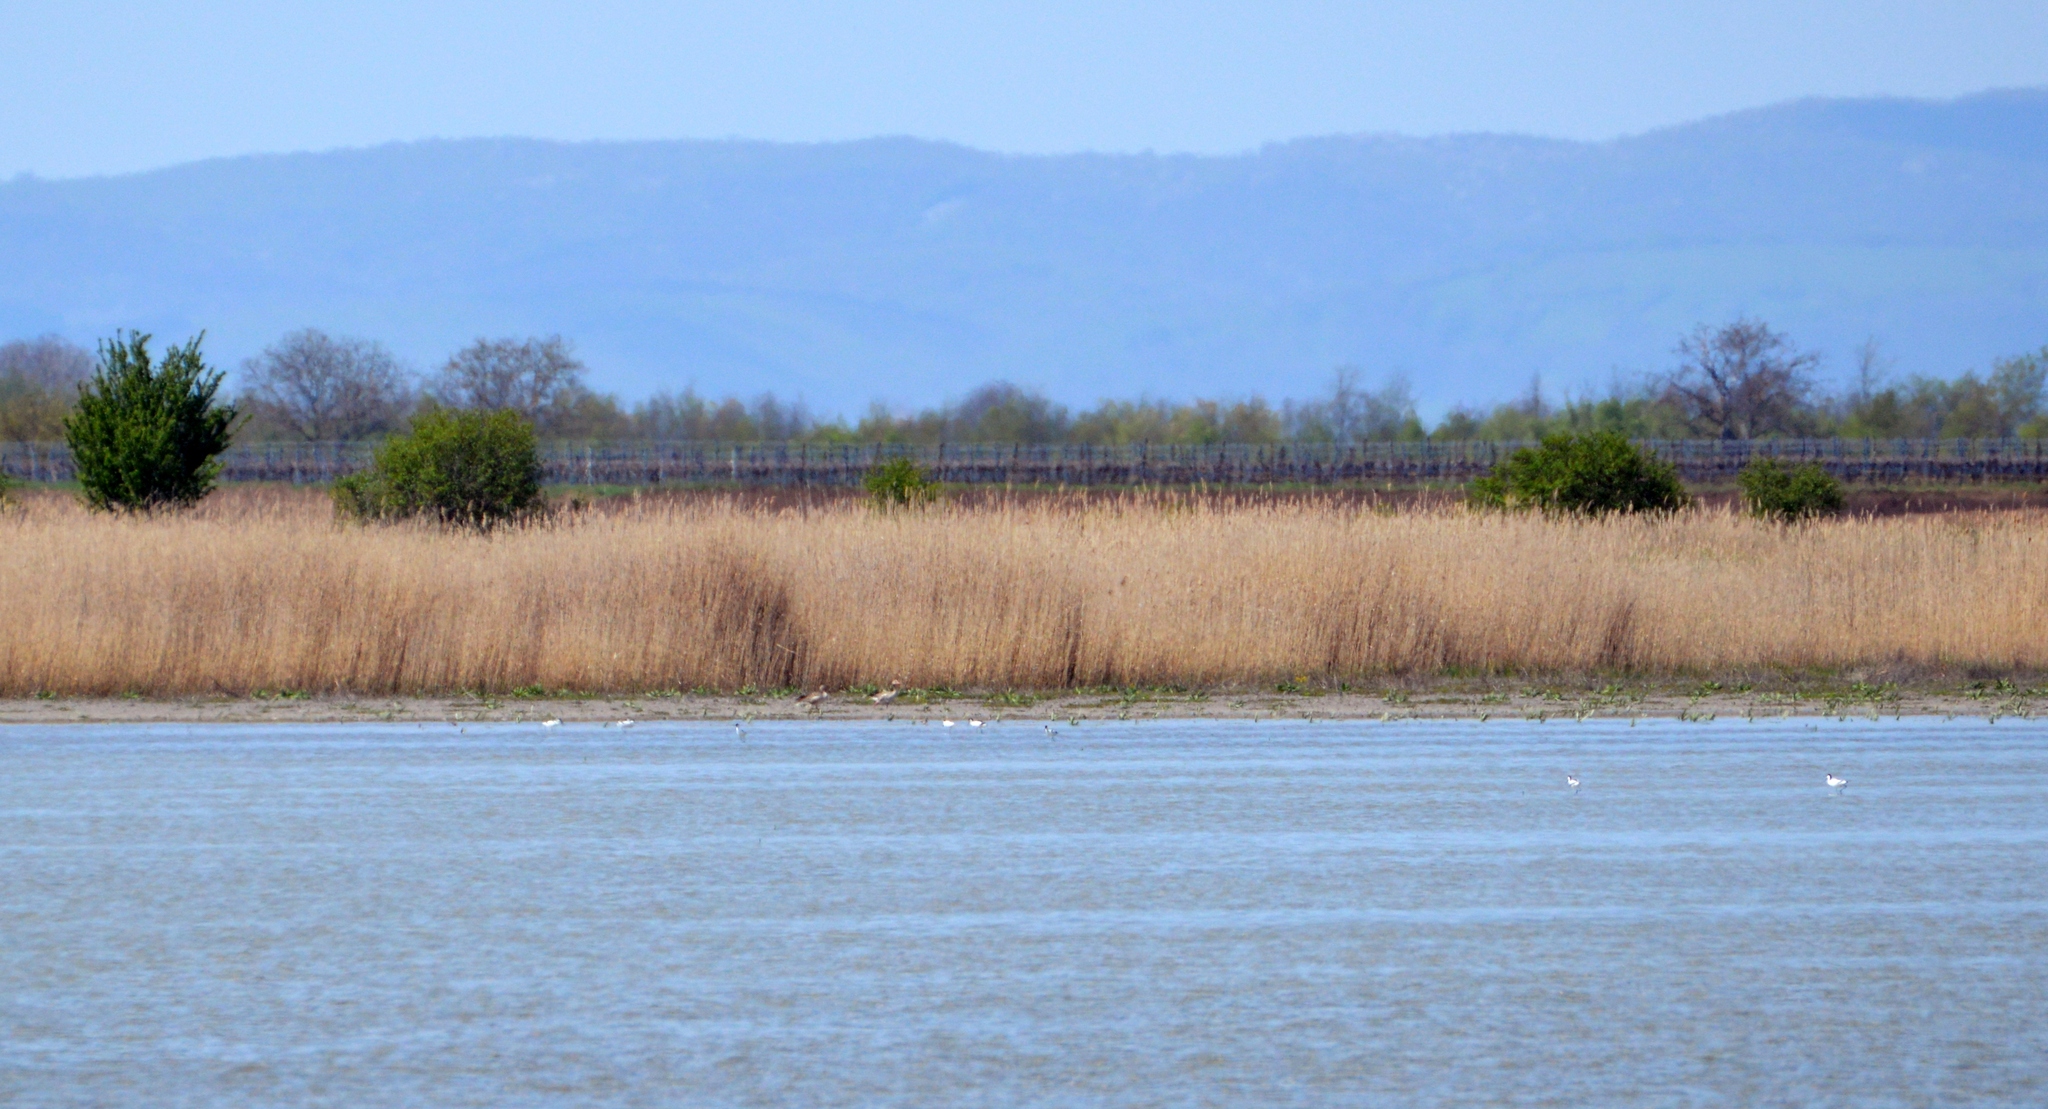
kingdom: Animalia
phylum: Chordata
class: Aves
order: Charadriiformes
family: Recurvirostridae
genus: Recurvirostra
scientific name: Recurvirostra avosetta
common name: Pied avocet
